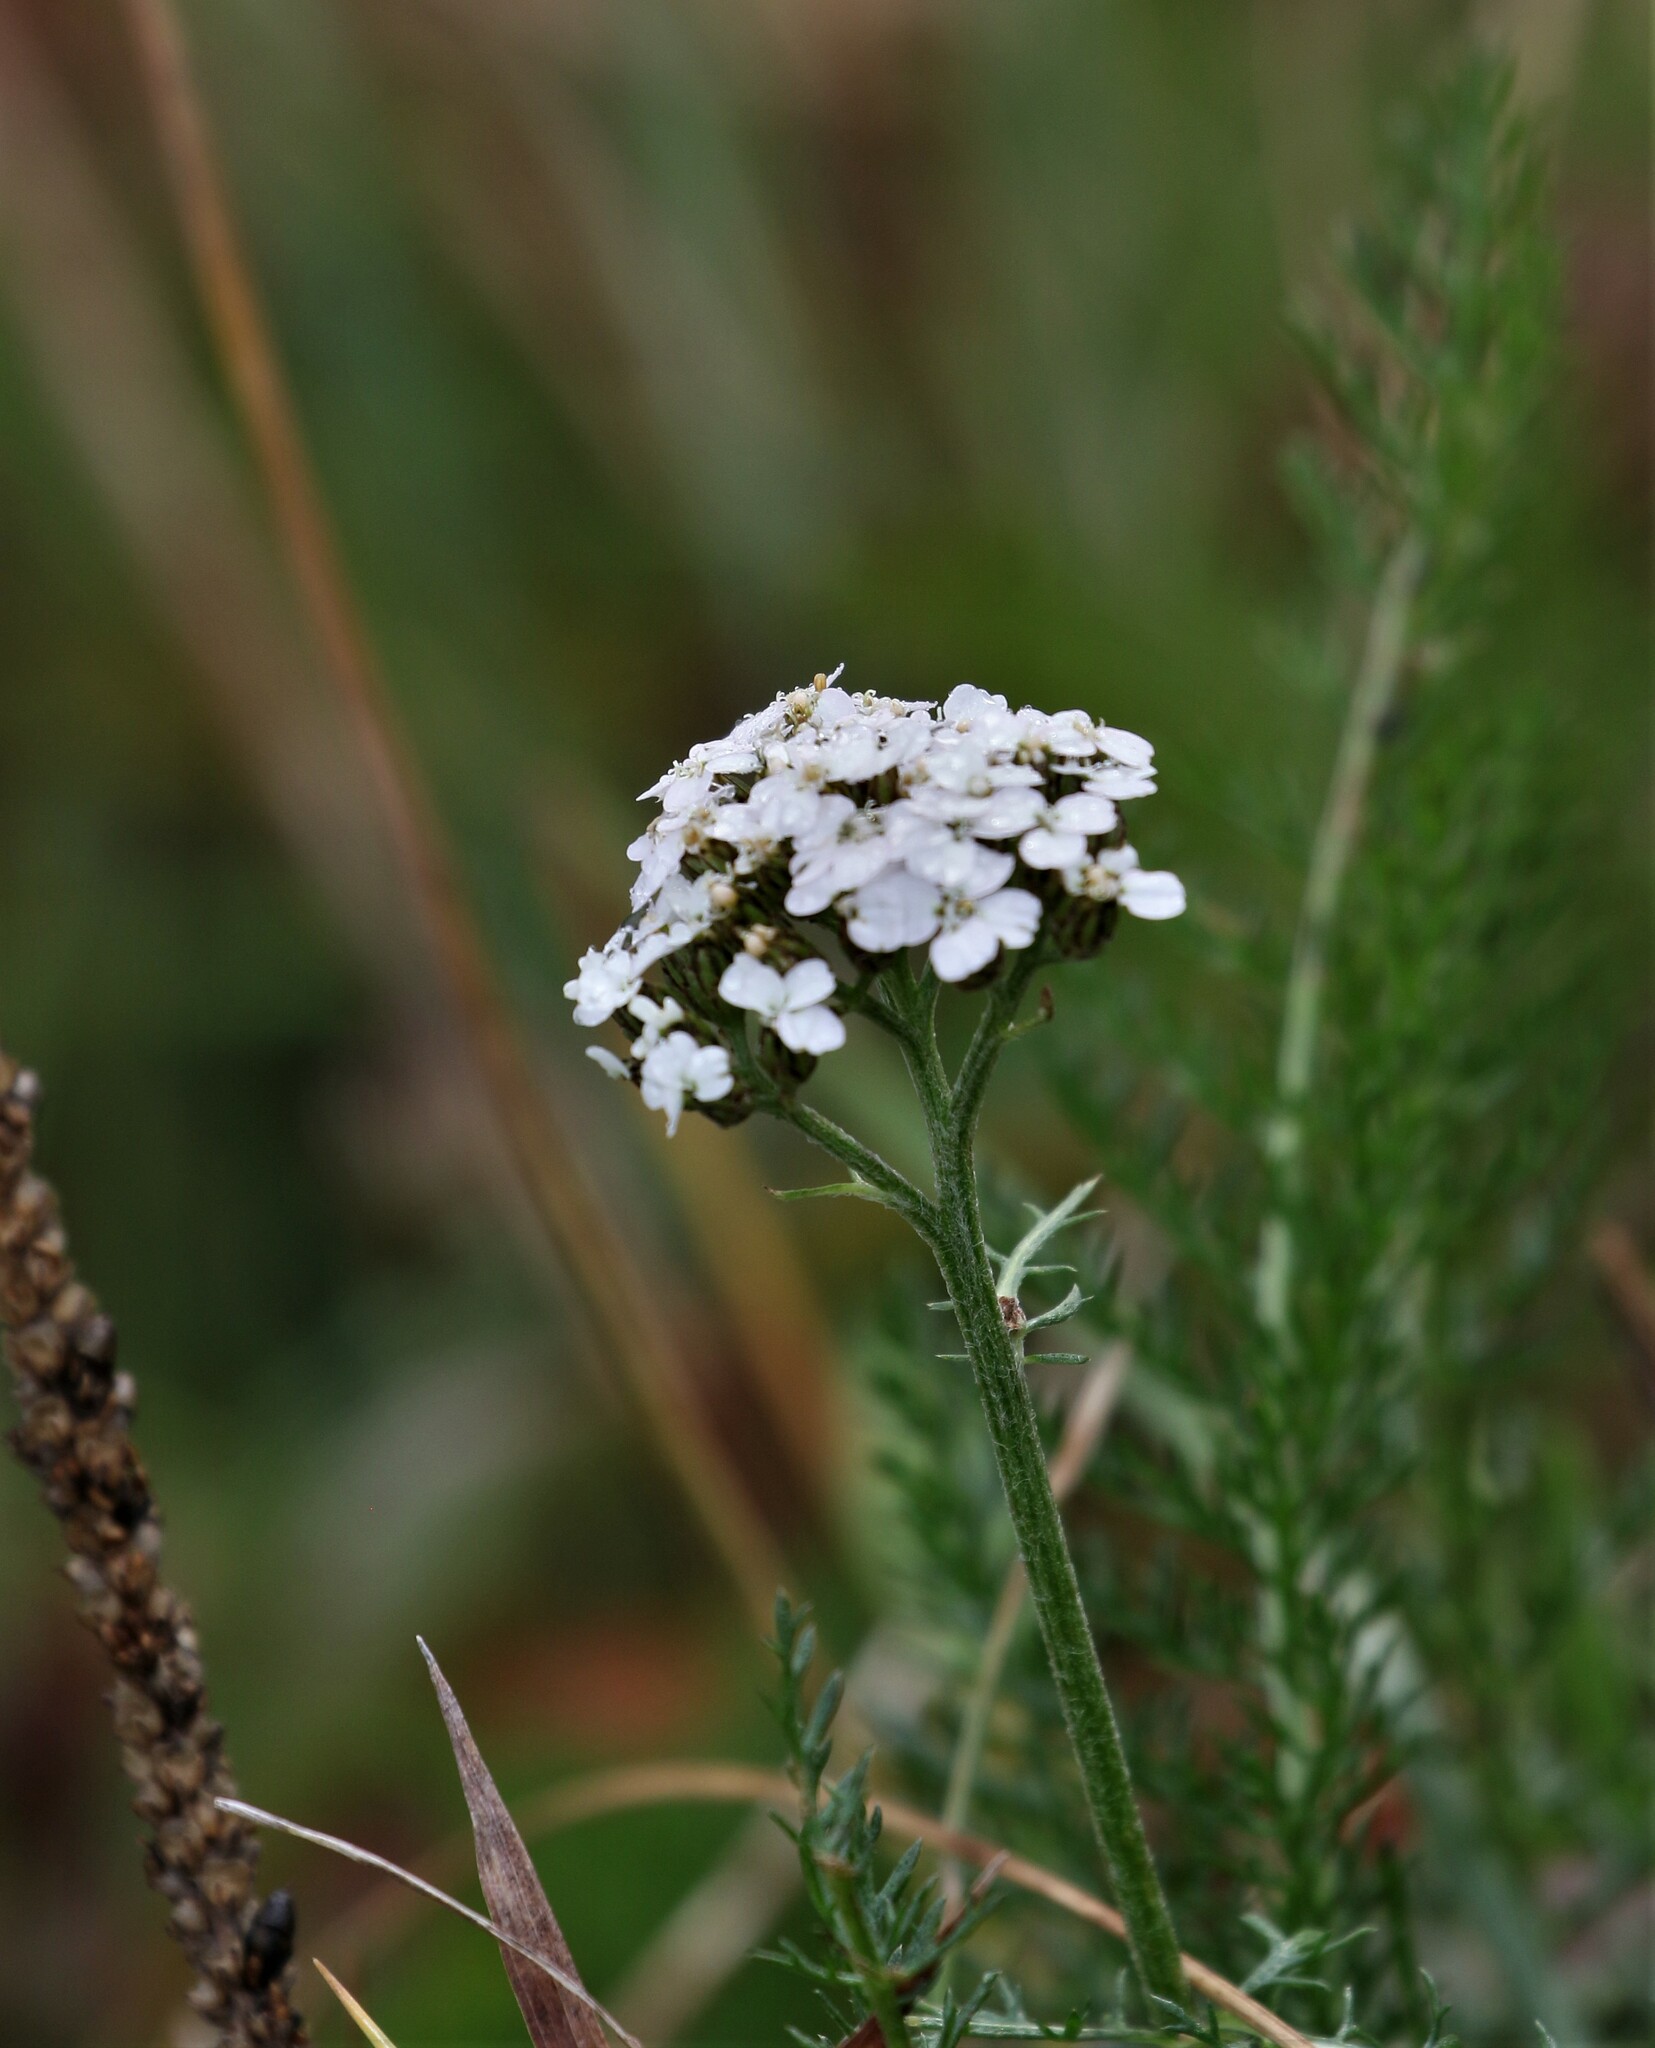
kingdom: Plantae
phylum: Tracheophyta
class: Magnoliopsida
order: Asterales
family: Asteraceae
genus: Achillea
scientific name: Achillea millefolium
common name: Yarrow
